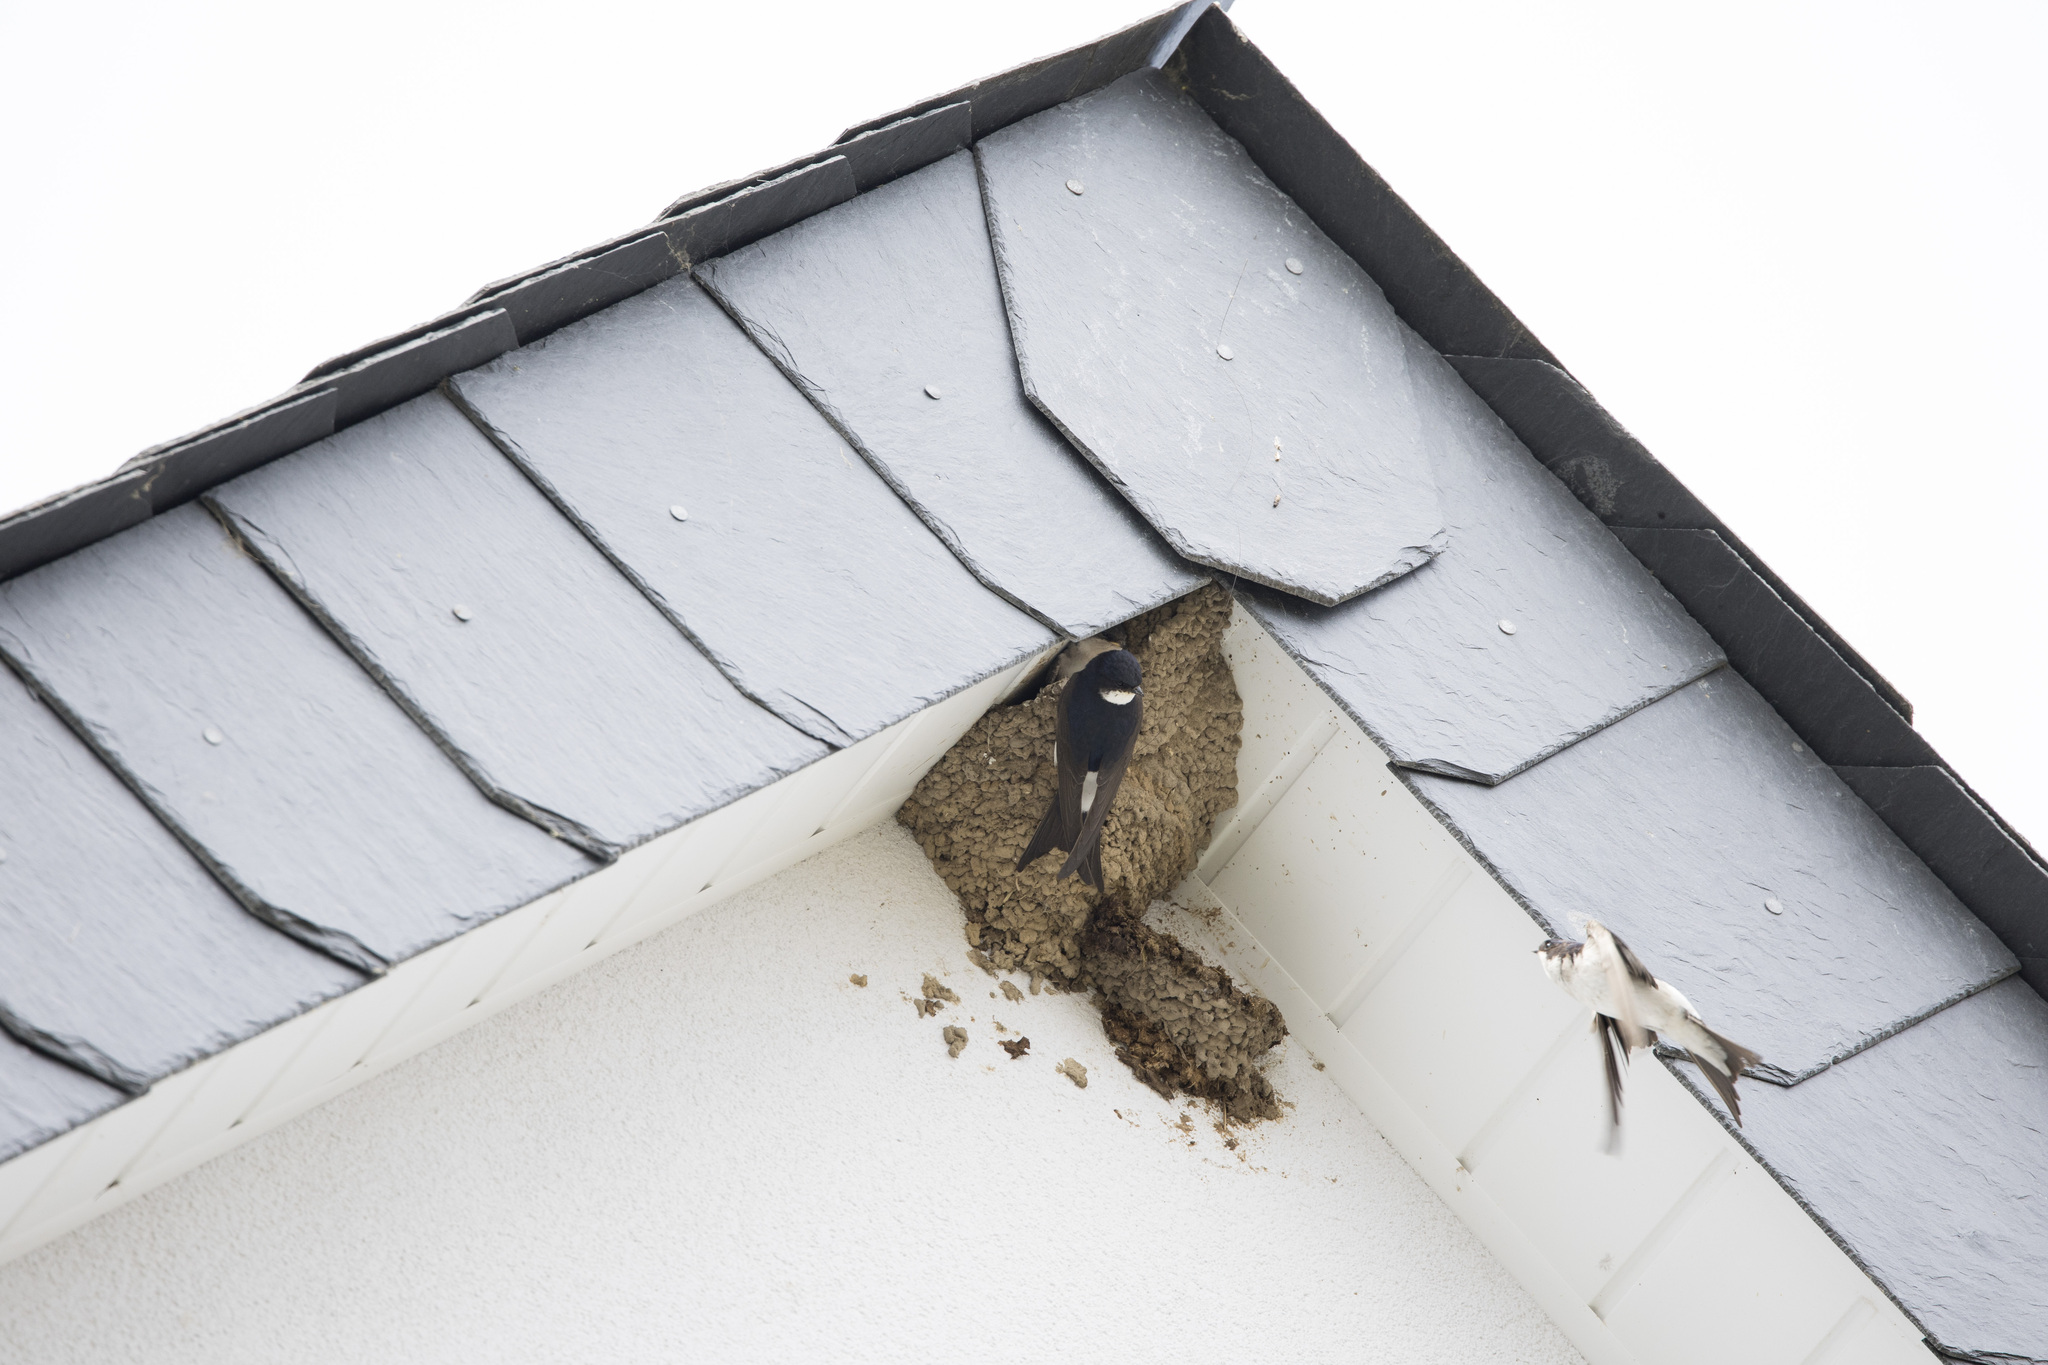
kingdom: Animalia
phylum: Chordata
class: Aves
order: Passeriformes
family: Hirundinidae
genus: Delichon
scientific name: Delichon urbicum
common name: Common house martin
